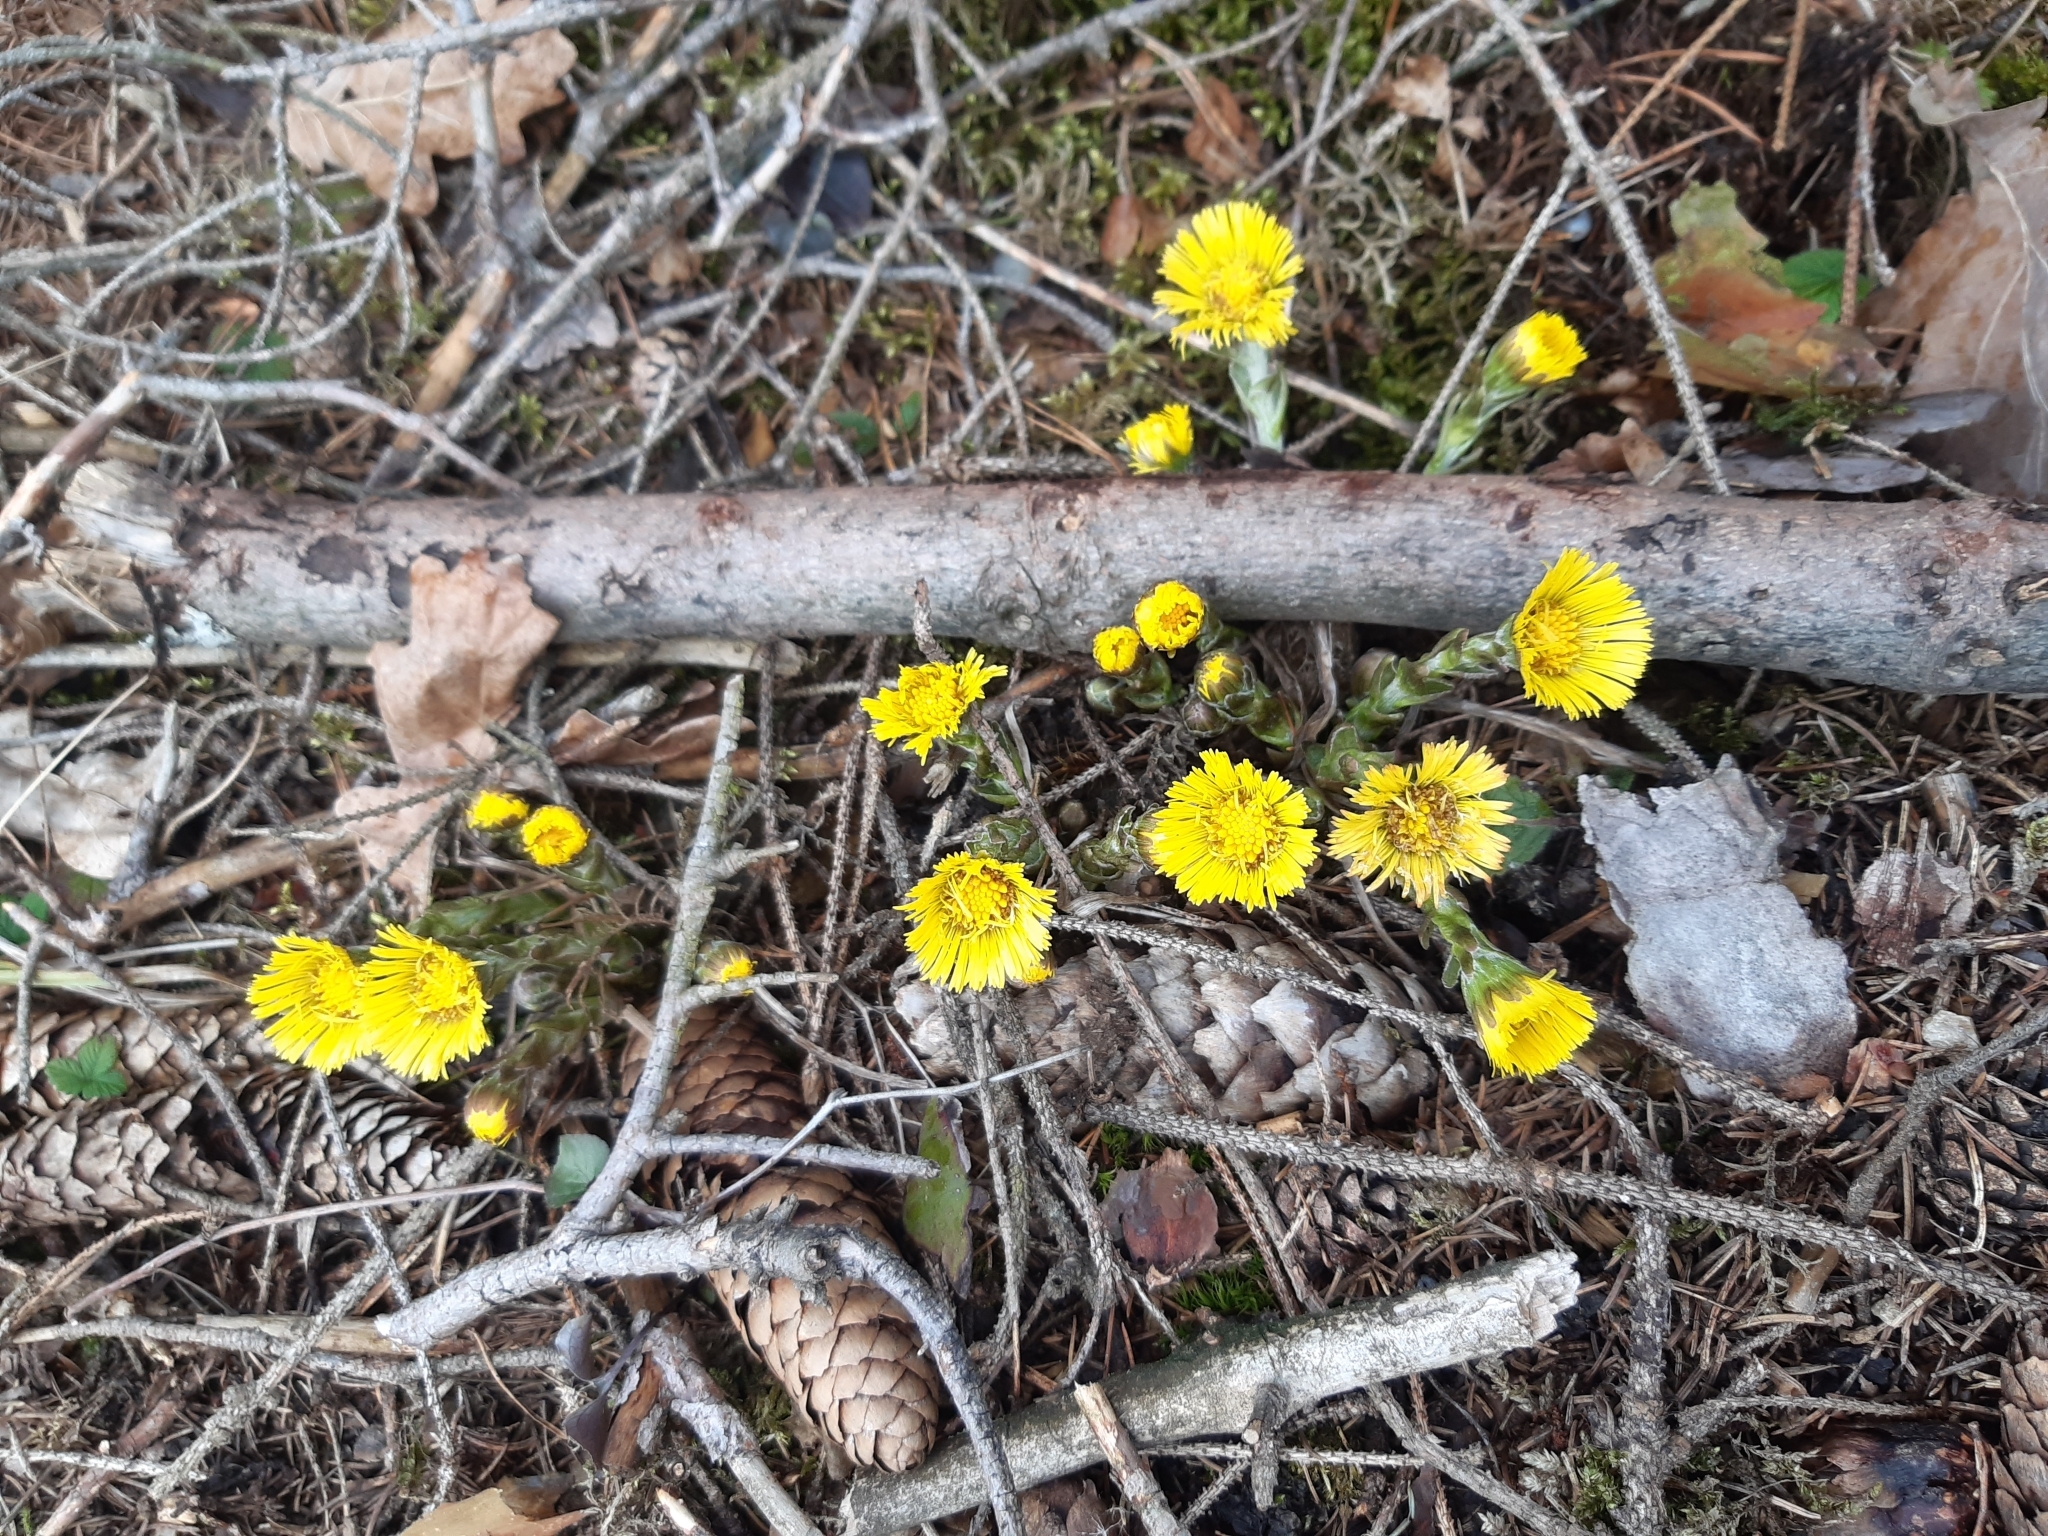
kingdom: Plantae
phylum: Tracheophyta
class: Magnoliopsida
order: Asterales
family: Asteraceae
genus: Tussilago
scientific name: Tussilago farfara
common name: Coltsfoot
